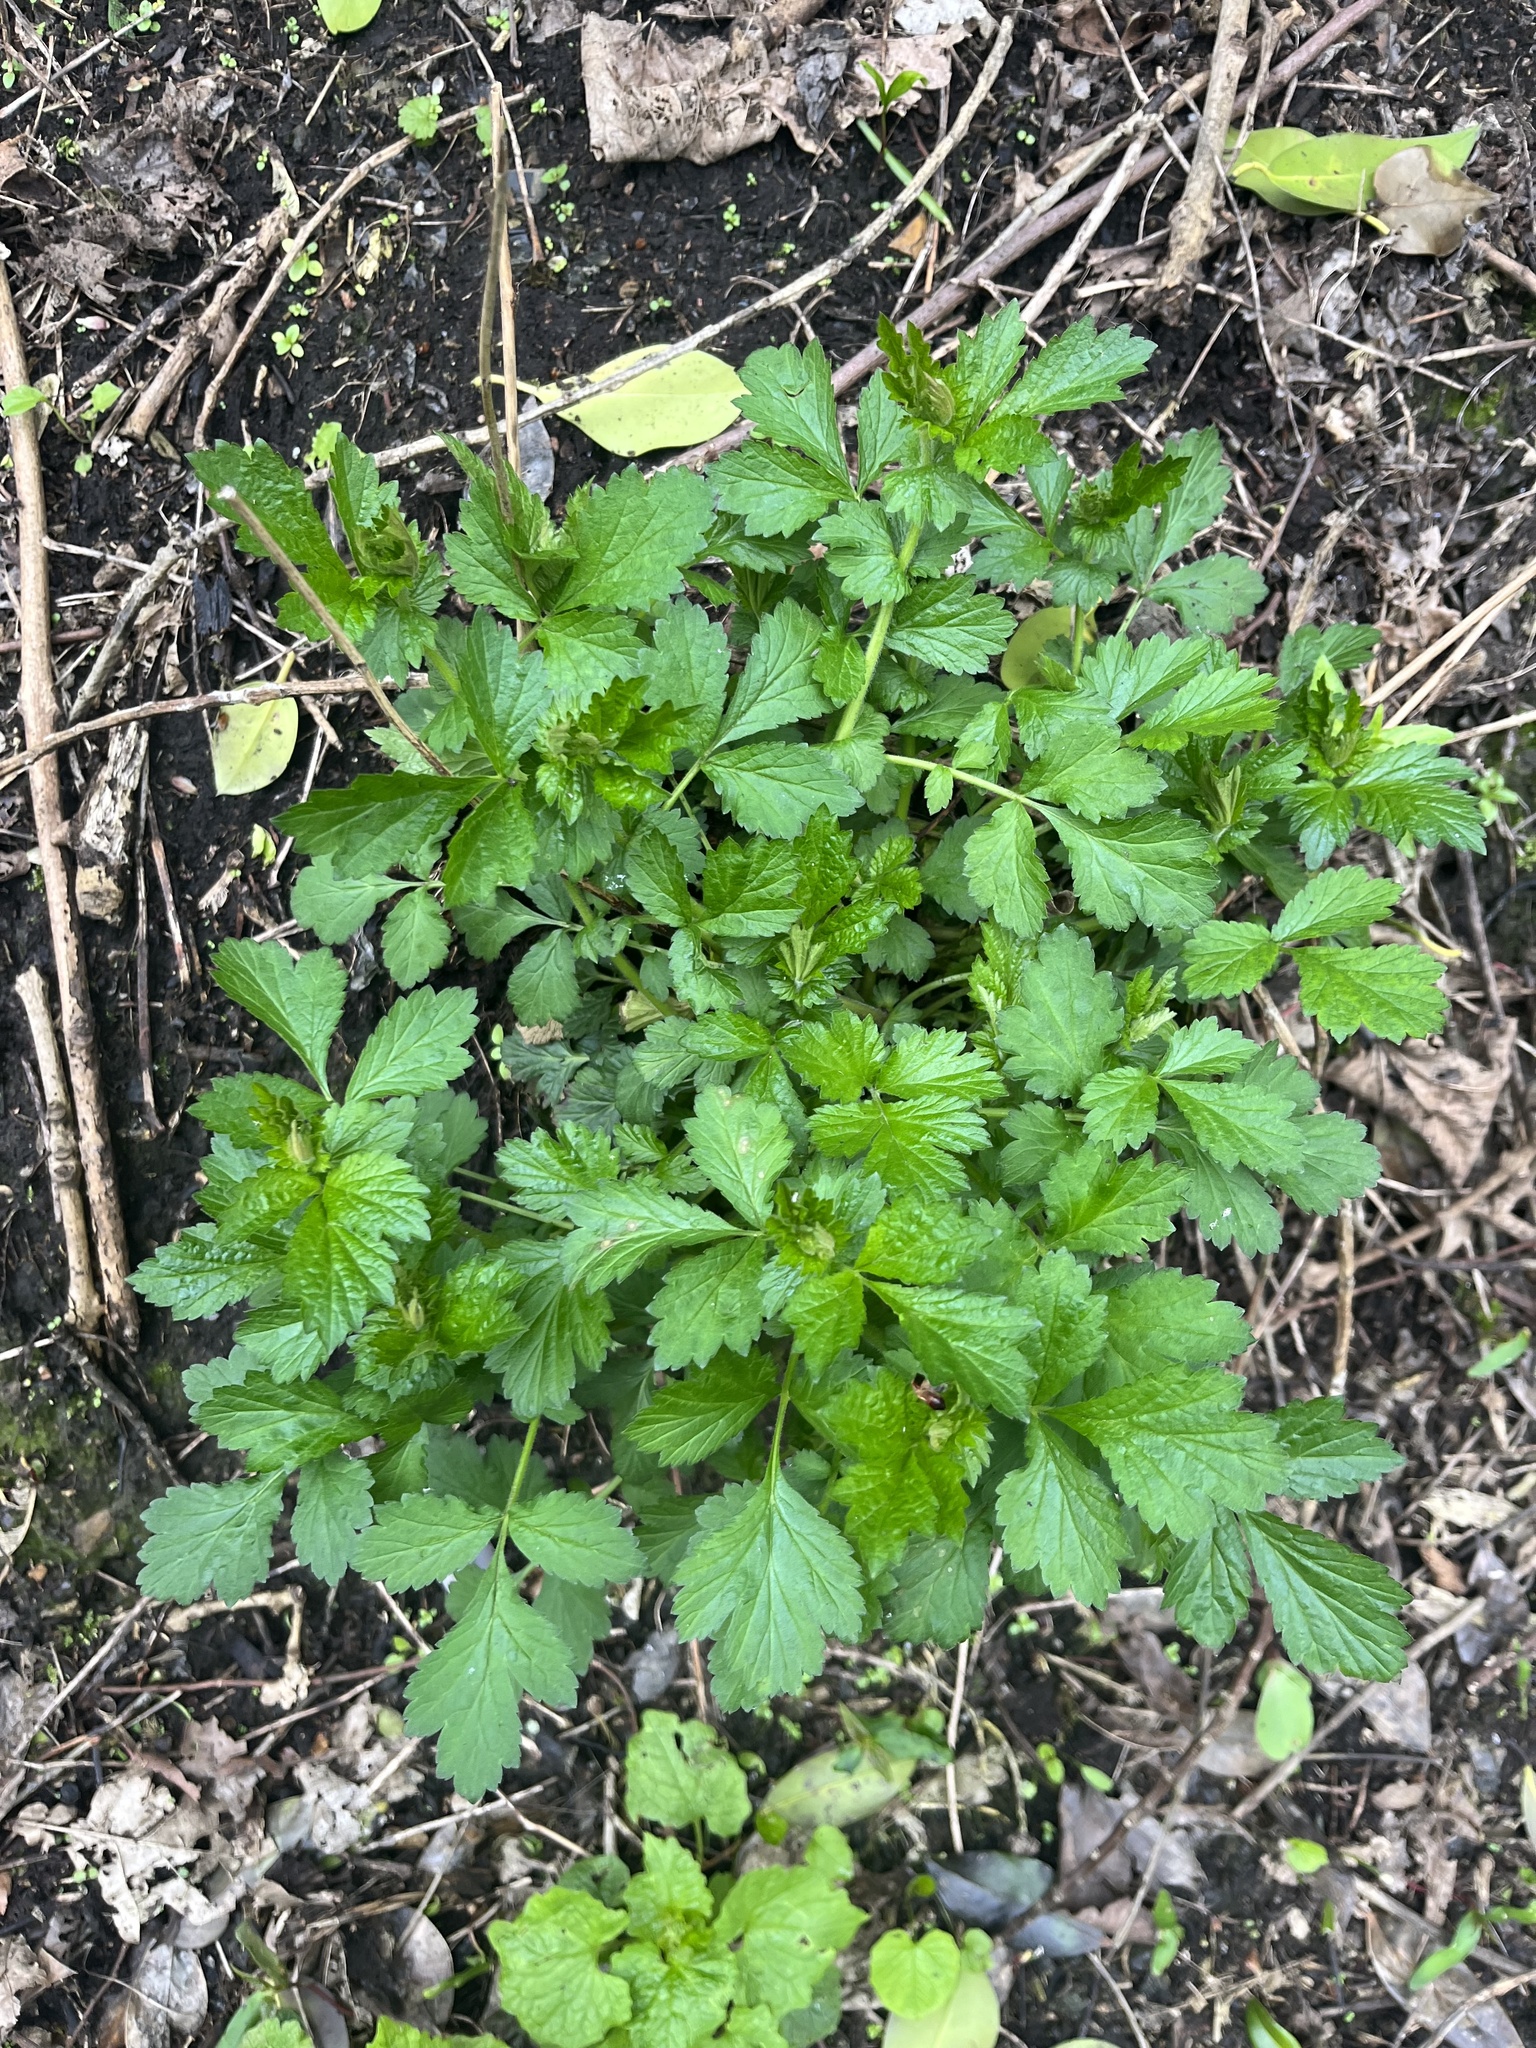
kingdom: Plantae
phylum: Tracheophyta
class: Magnoliopsida
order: Rosales
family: Rosaceae
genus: Geum
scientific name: Geum urbanum
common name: Wood avens
